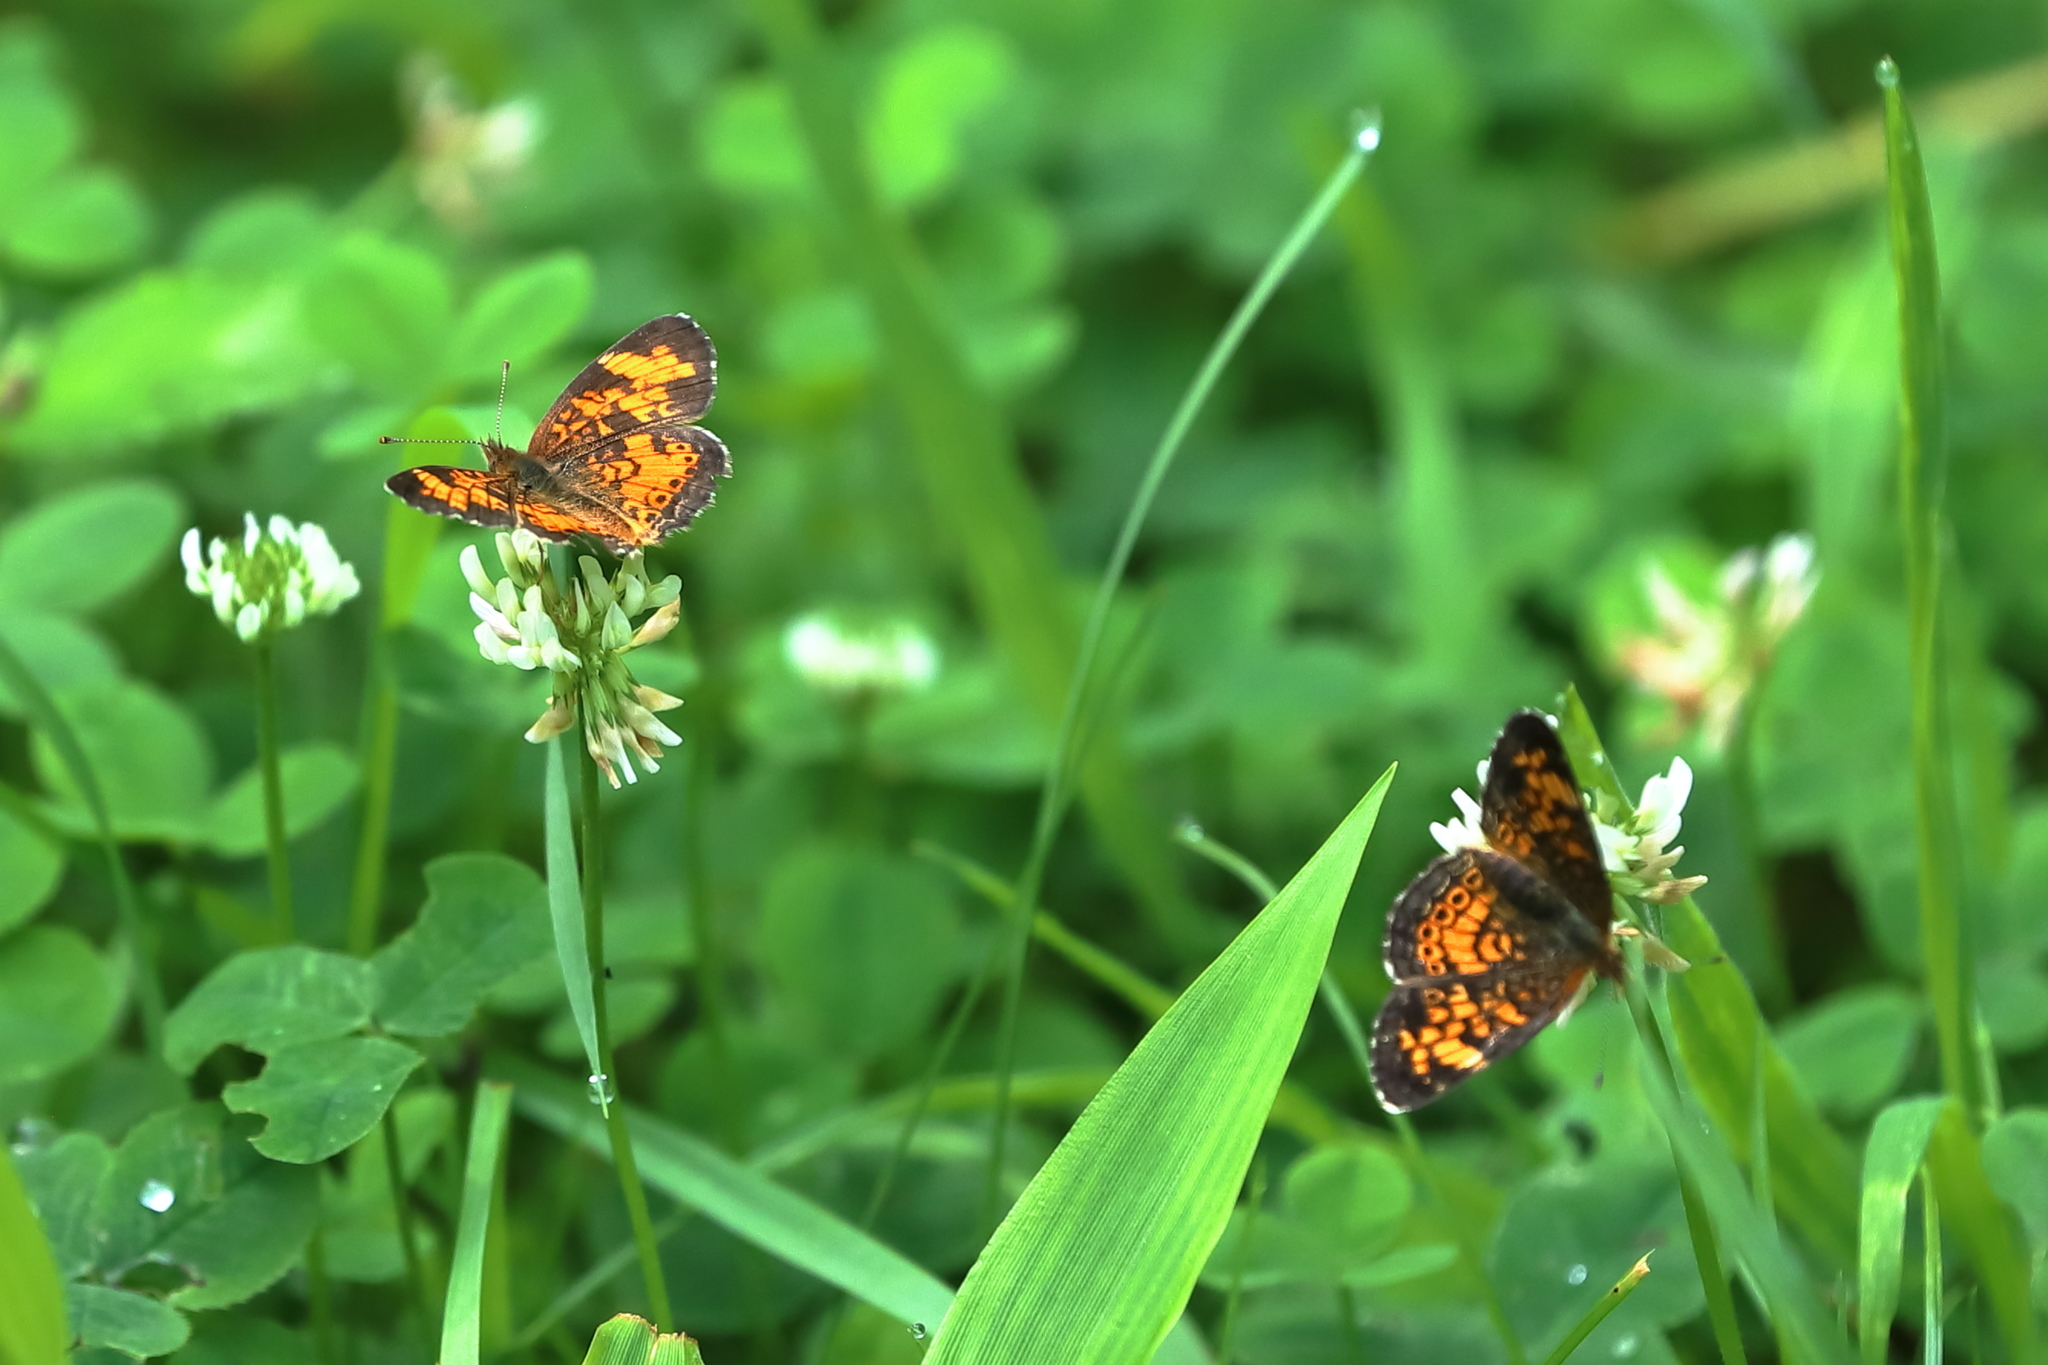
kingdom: Animalia
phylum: Arthropoda
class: Insecta
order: Lepidoptera
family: Nymphalidae
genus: Phyciodes
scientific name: Phyciodes tharos
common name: Pearl crescent
